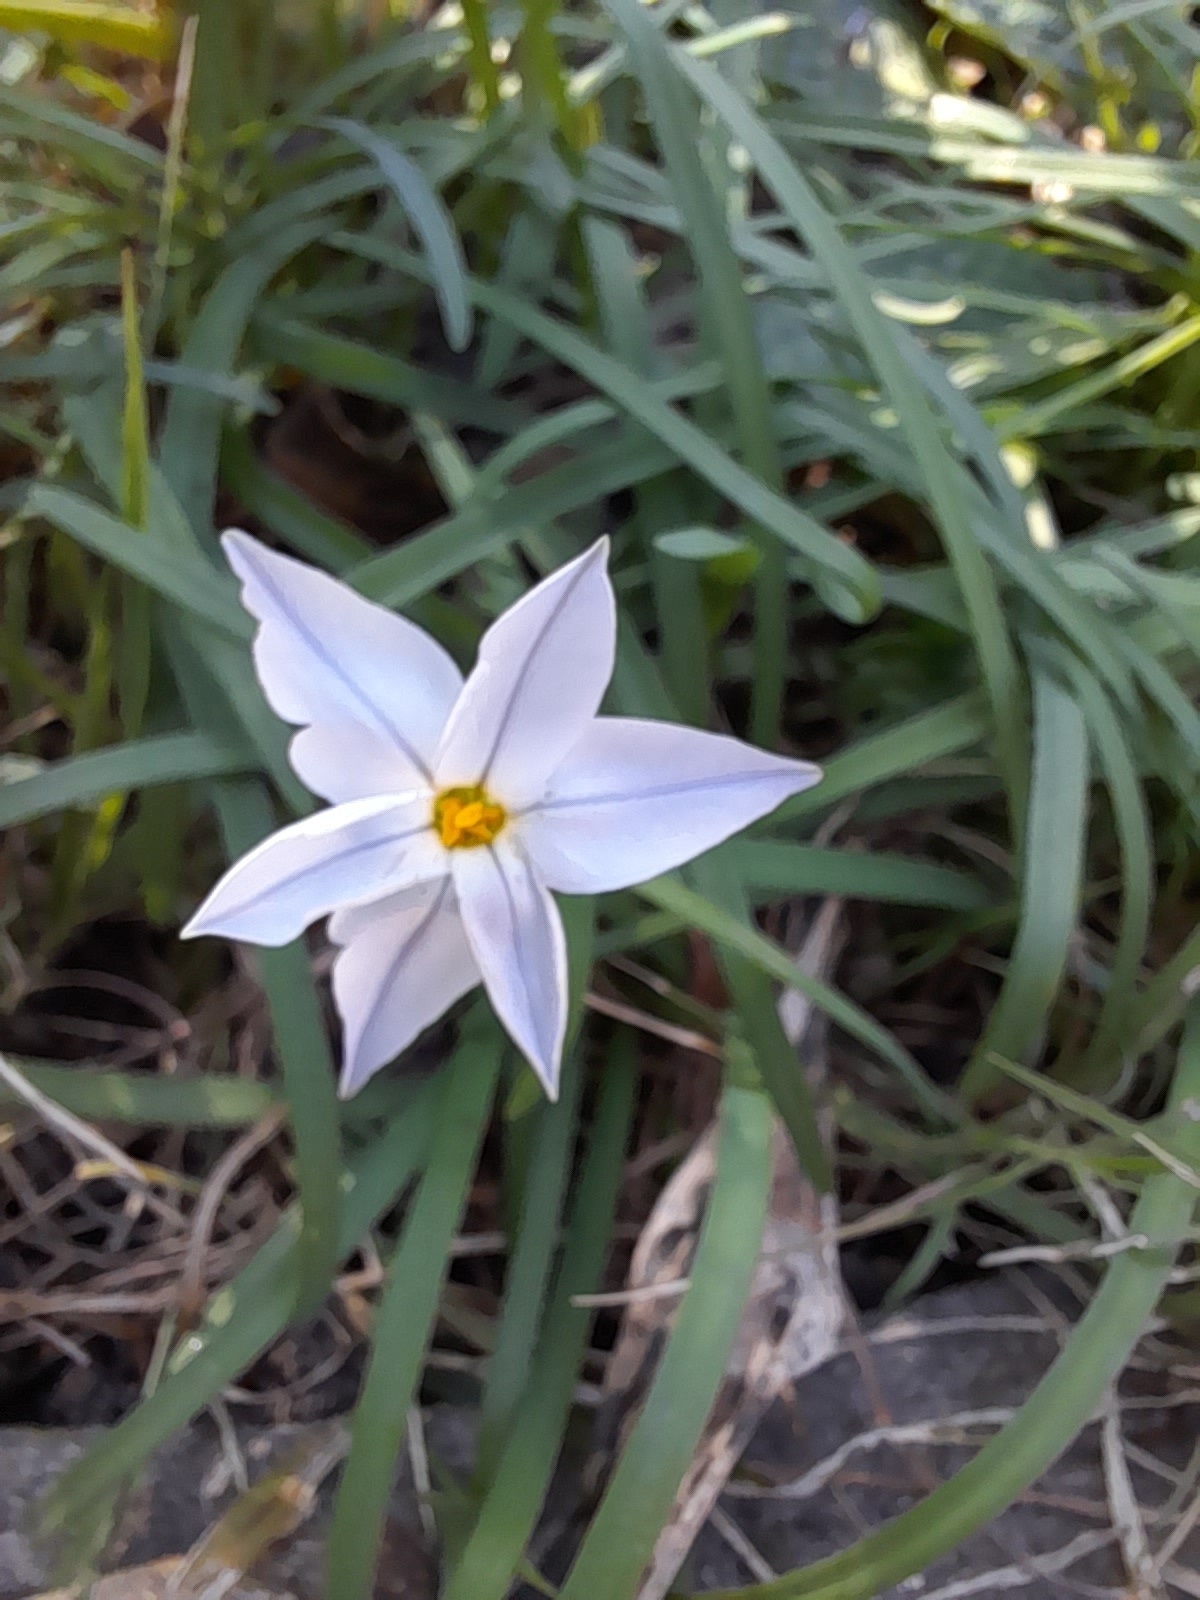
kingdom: Plantae
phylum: Tracheophyta
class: Liliopsida
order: Asparagales
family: Amaryllidaceae
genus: Ipheion
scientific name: Ipheion uniflorum
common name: Spring starflower
